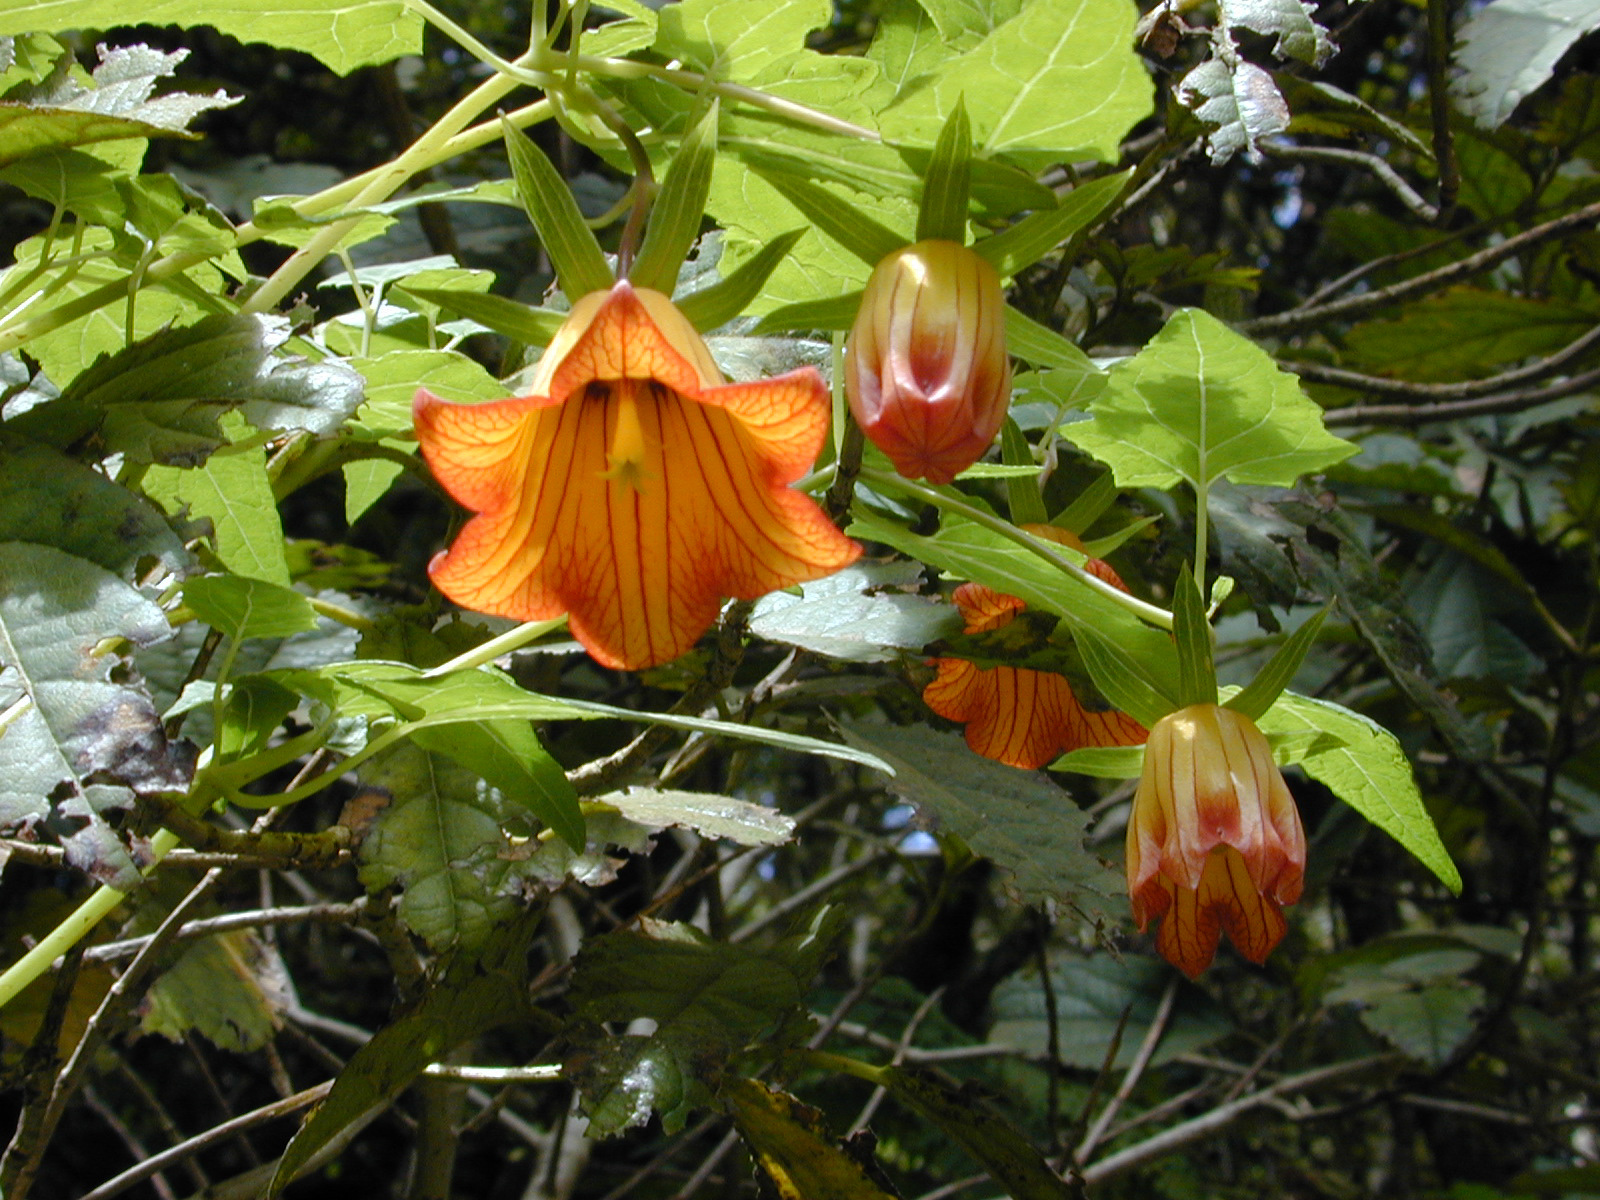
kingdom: Plantae
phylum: Tracheophyta
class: Magnoliopsida
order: Asterales
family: Campanulaceae
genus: Canarina
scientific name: Canarina canariensis
